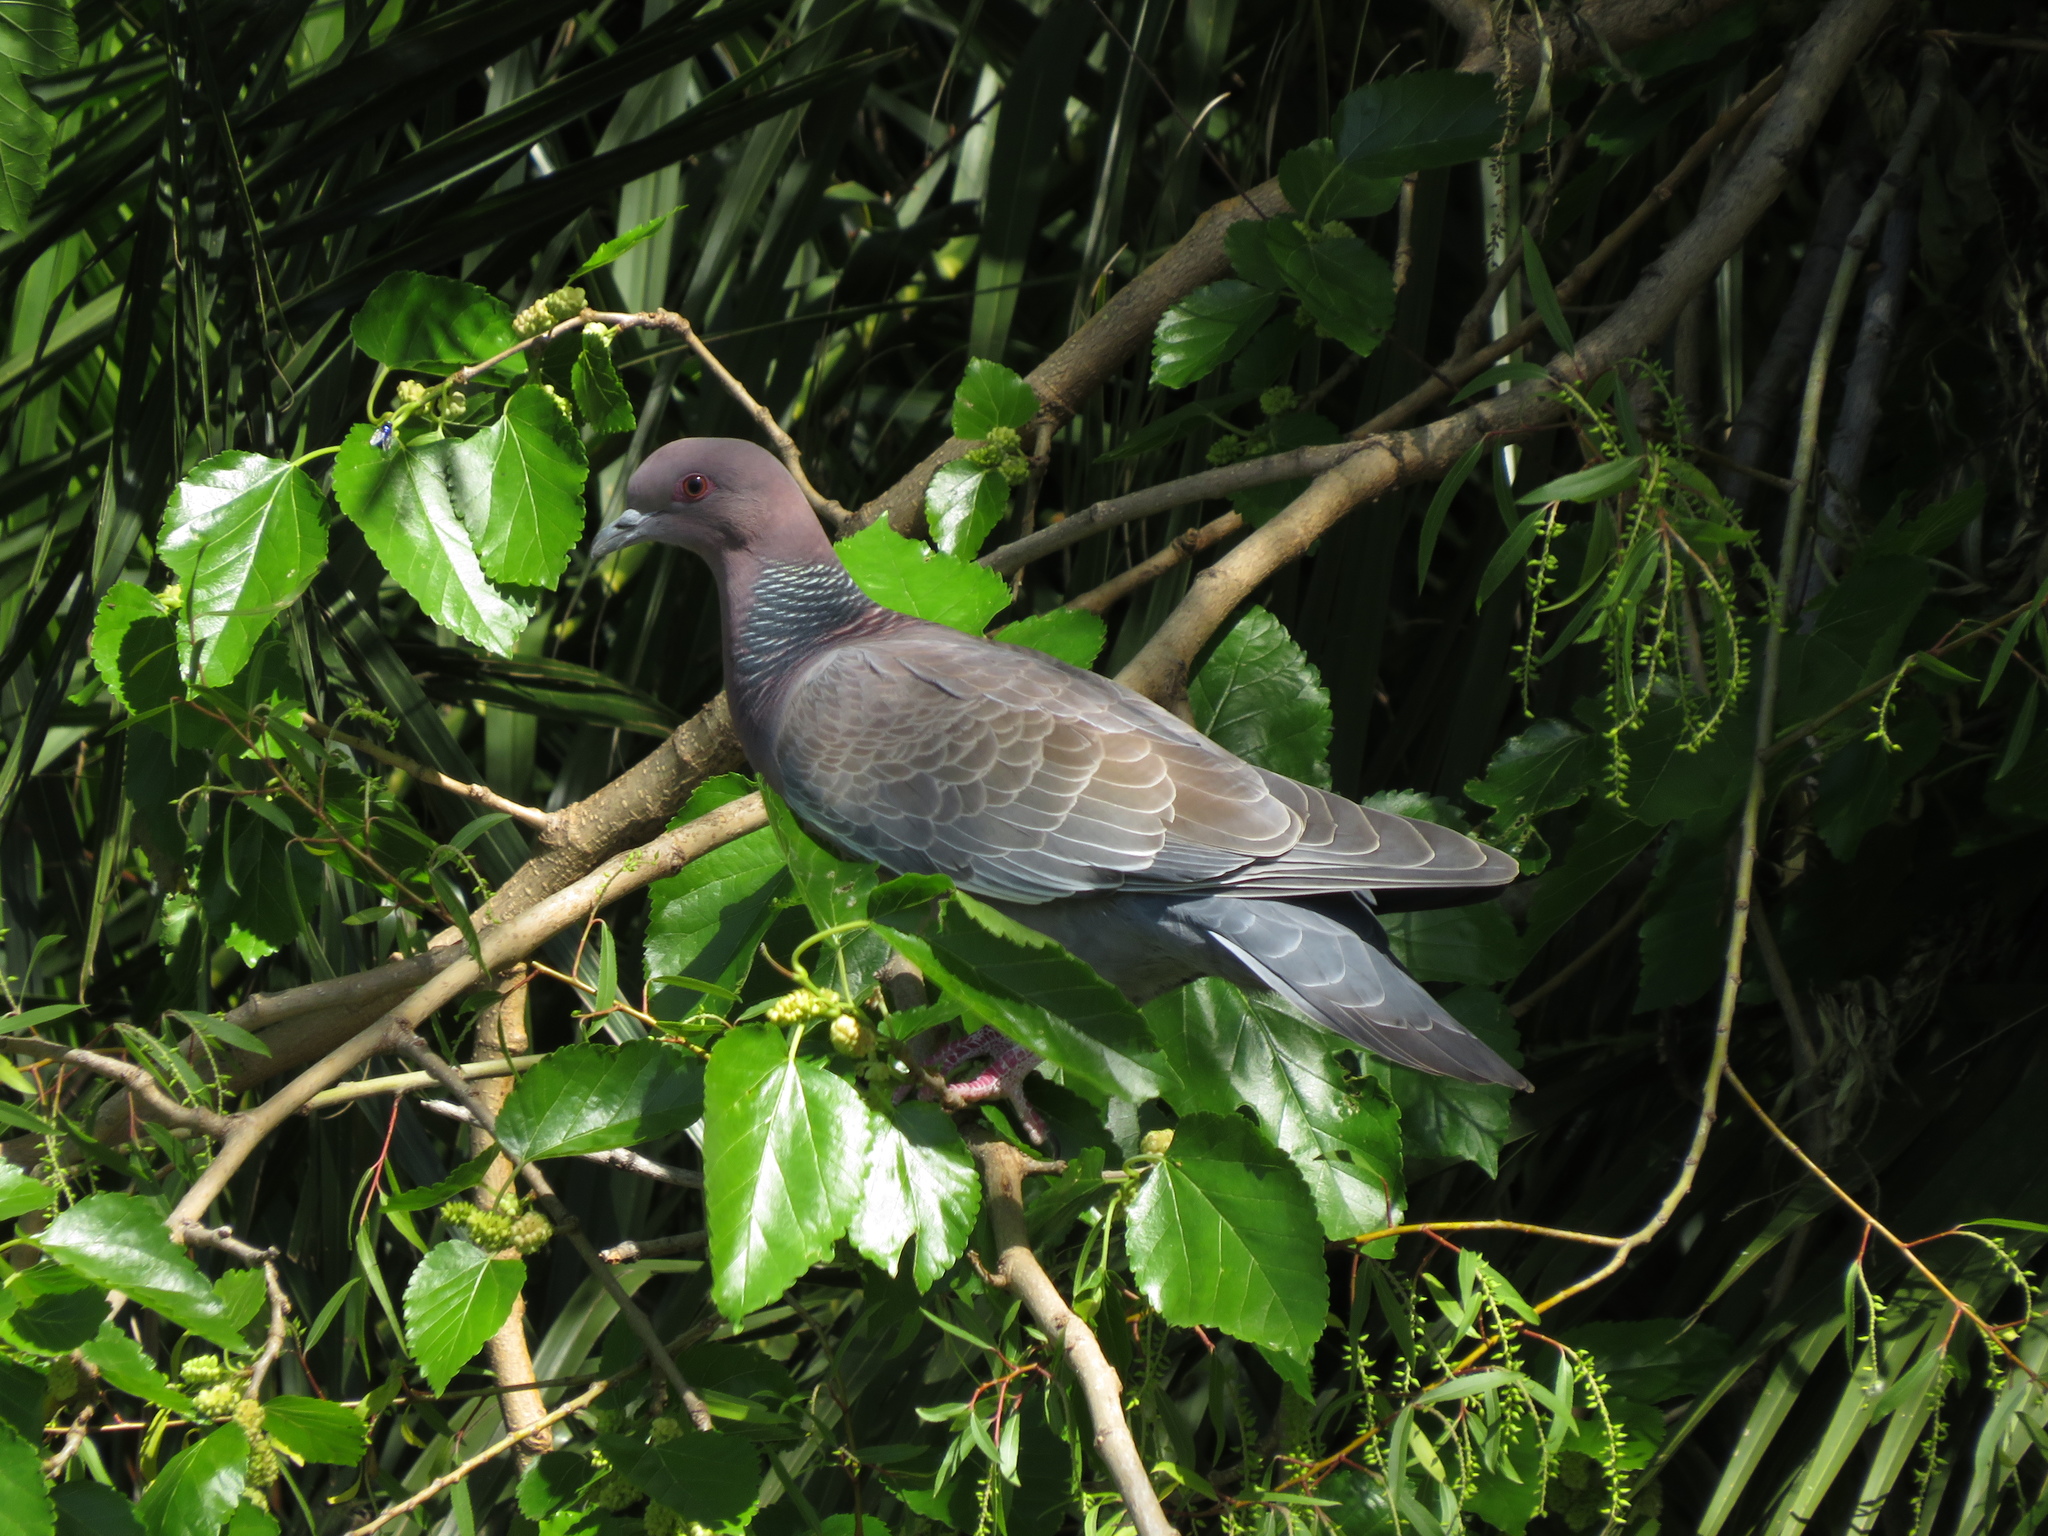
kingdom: Animalia
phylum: Chordata
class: Aves
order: Columbiformes
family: Columbidae
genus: Patagioenas
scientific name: Patagioenas picazuro
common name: Picazuro pigeon
